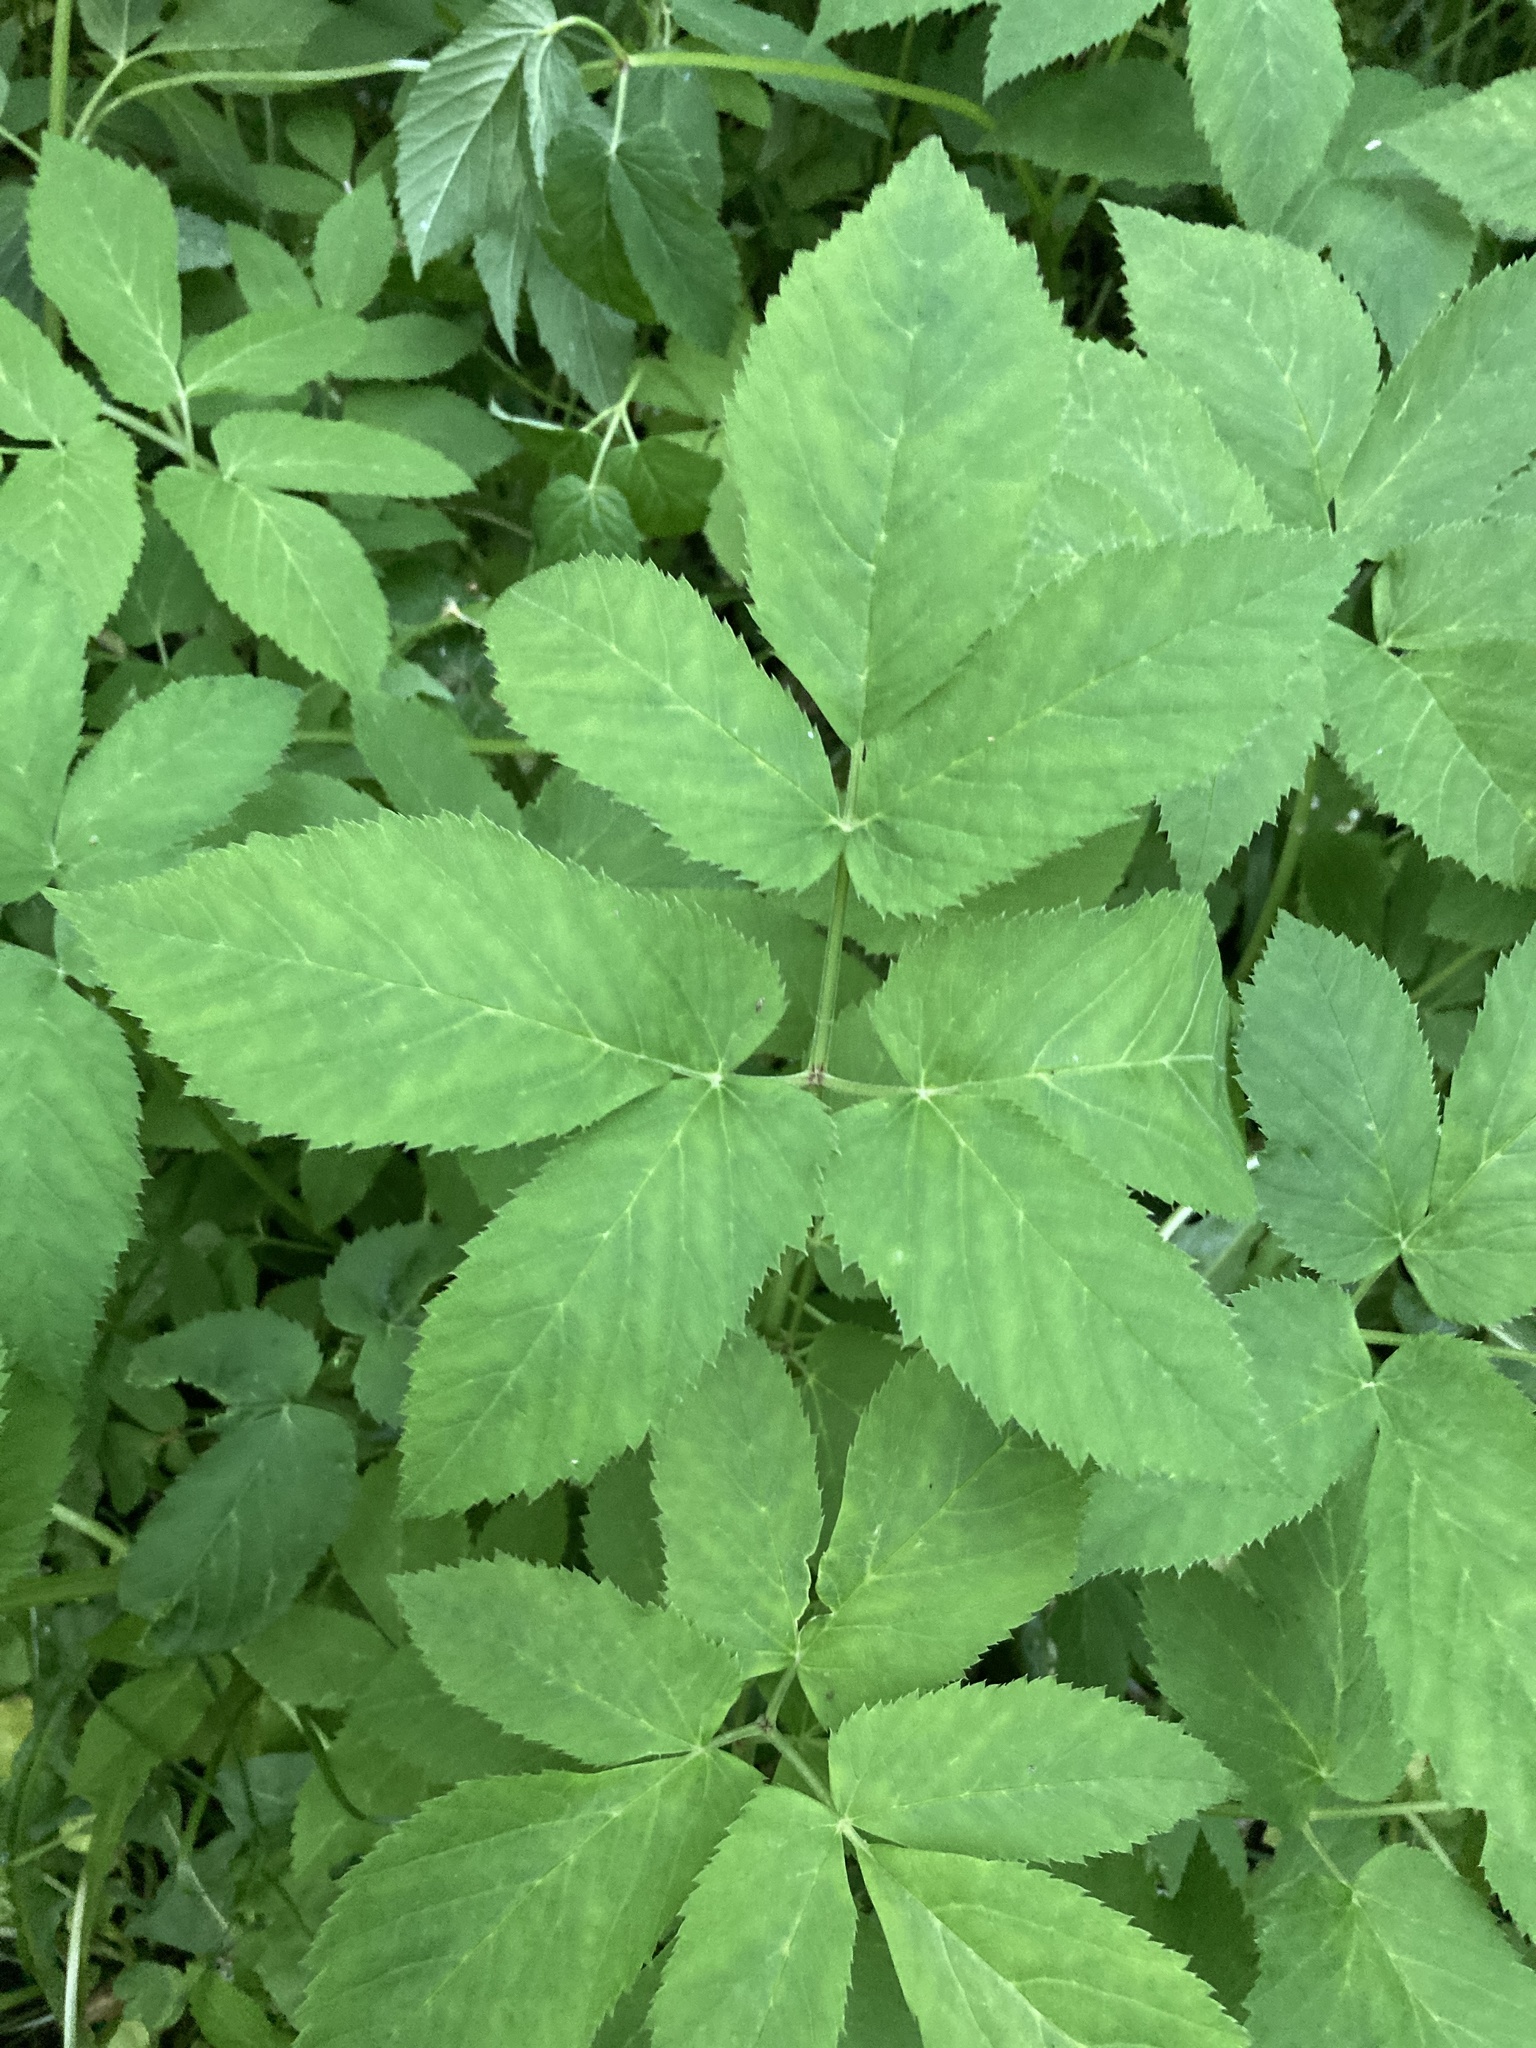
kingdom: Plantae
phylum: Tracheophyta
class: Magnoliopsida
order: Apiales
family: Apiaceae
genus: Aegopodium
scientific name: Aegopodium podagraria
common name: Ground-elder
